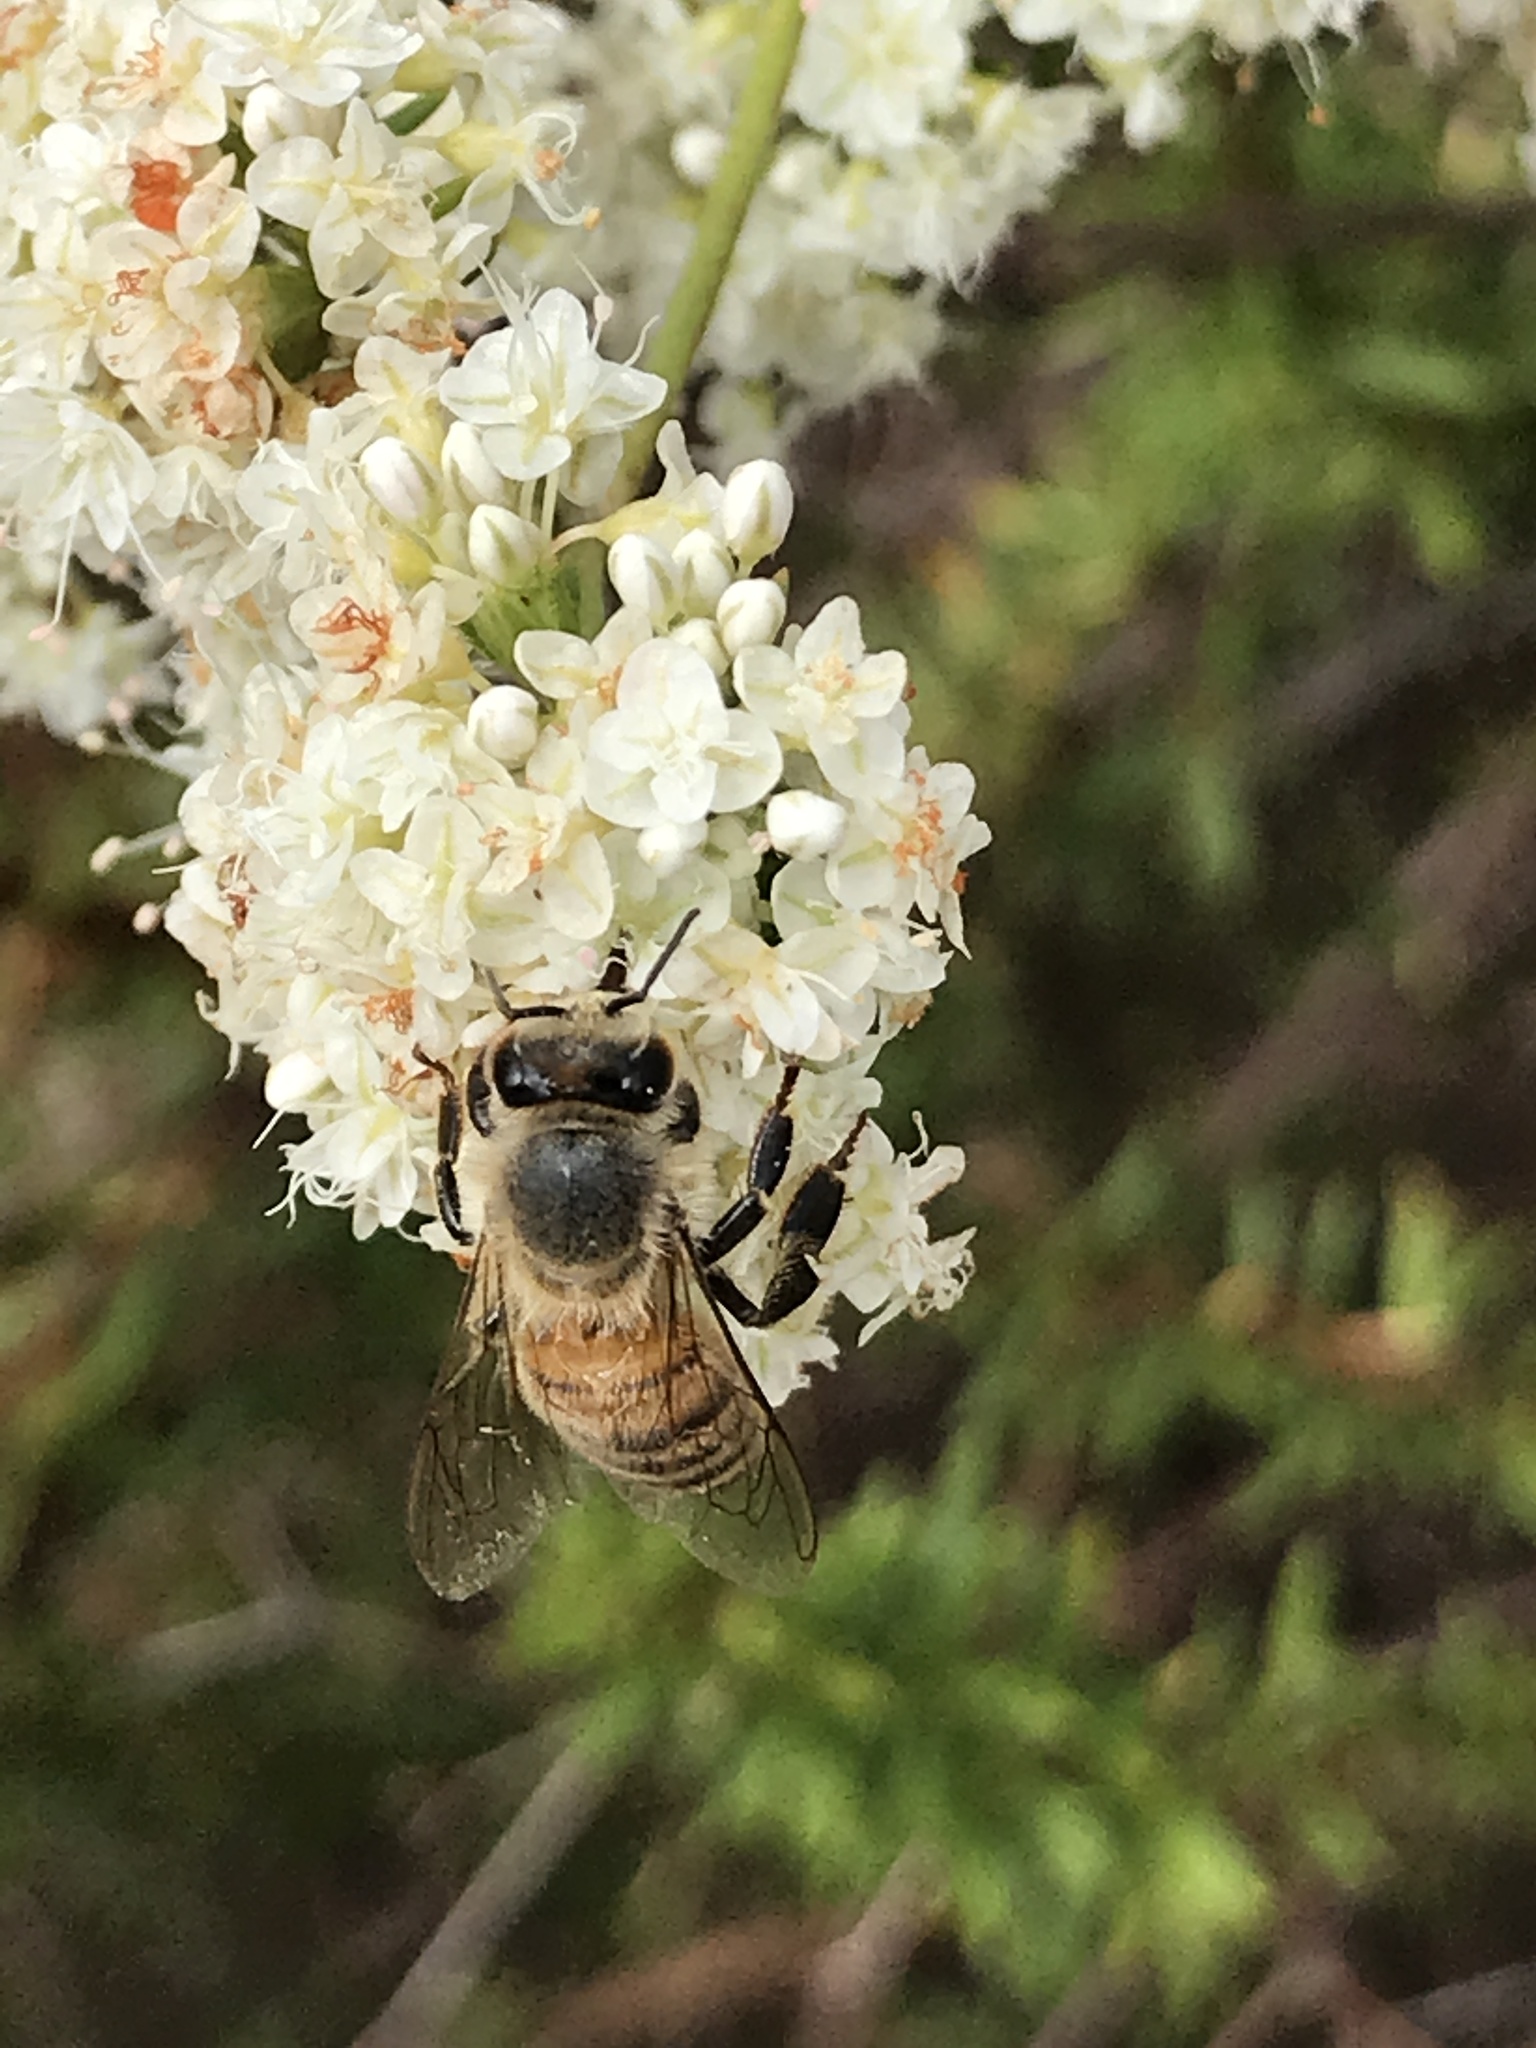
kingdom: Animalia
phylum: Arthropoda
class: Insecta
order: Hymenoptera
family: Apidae
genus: Apis
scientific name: Apis mellifera
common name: Honey bee
